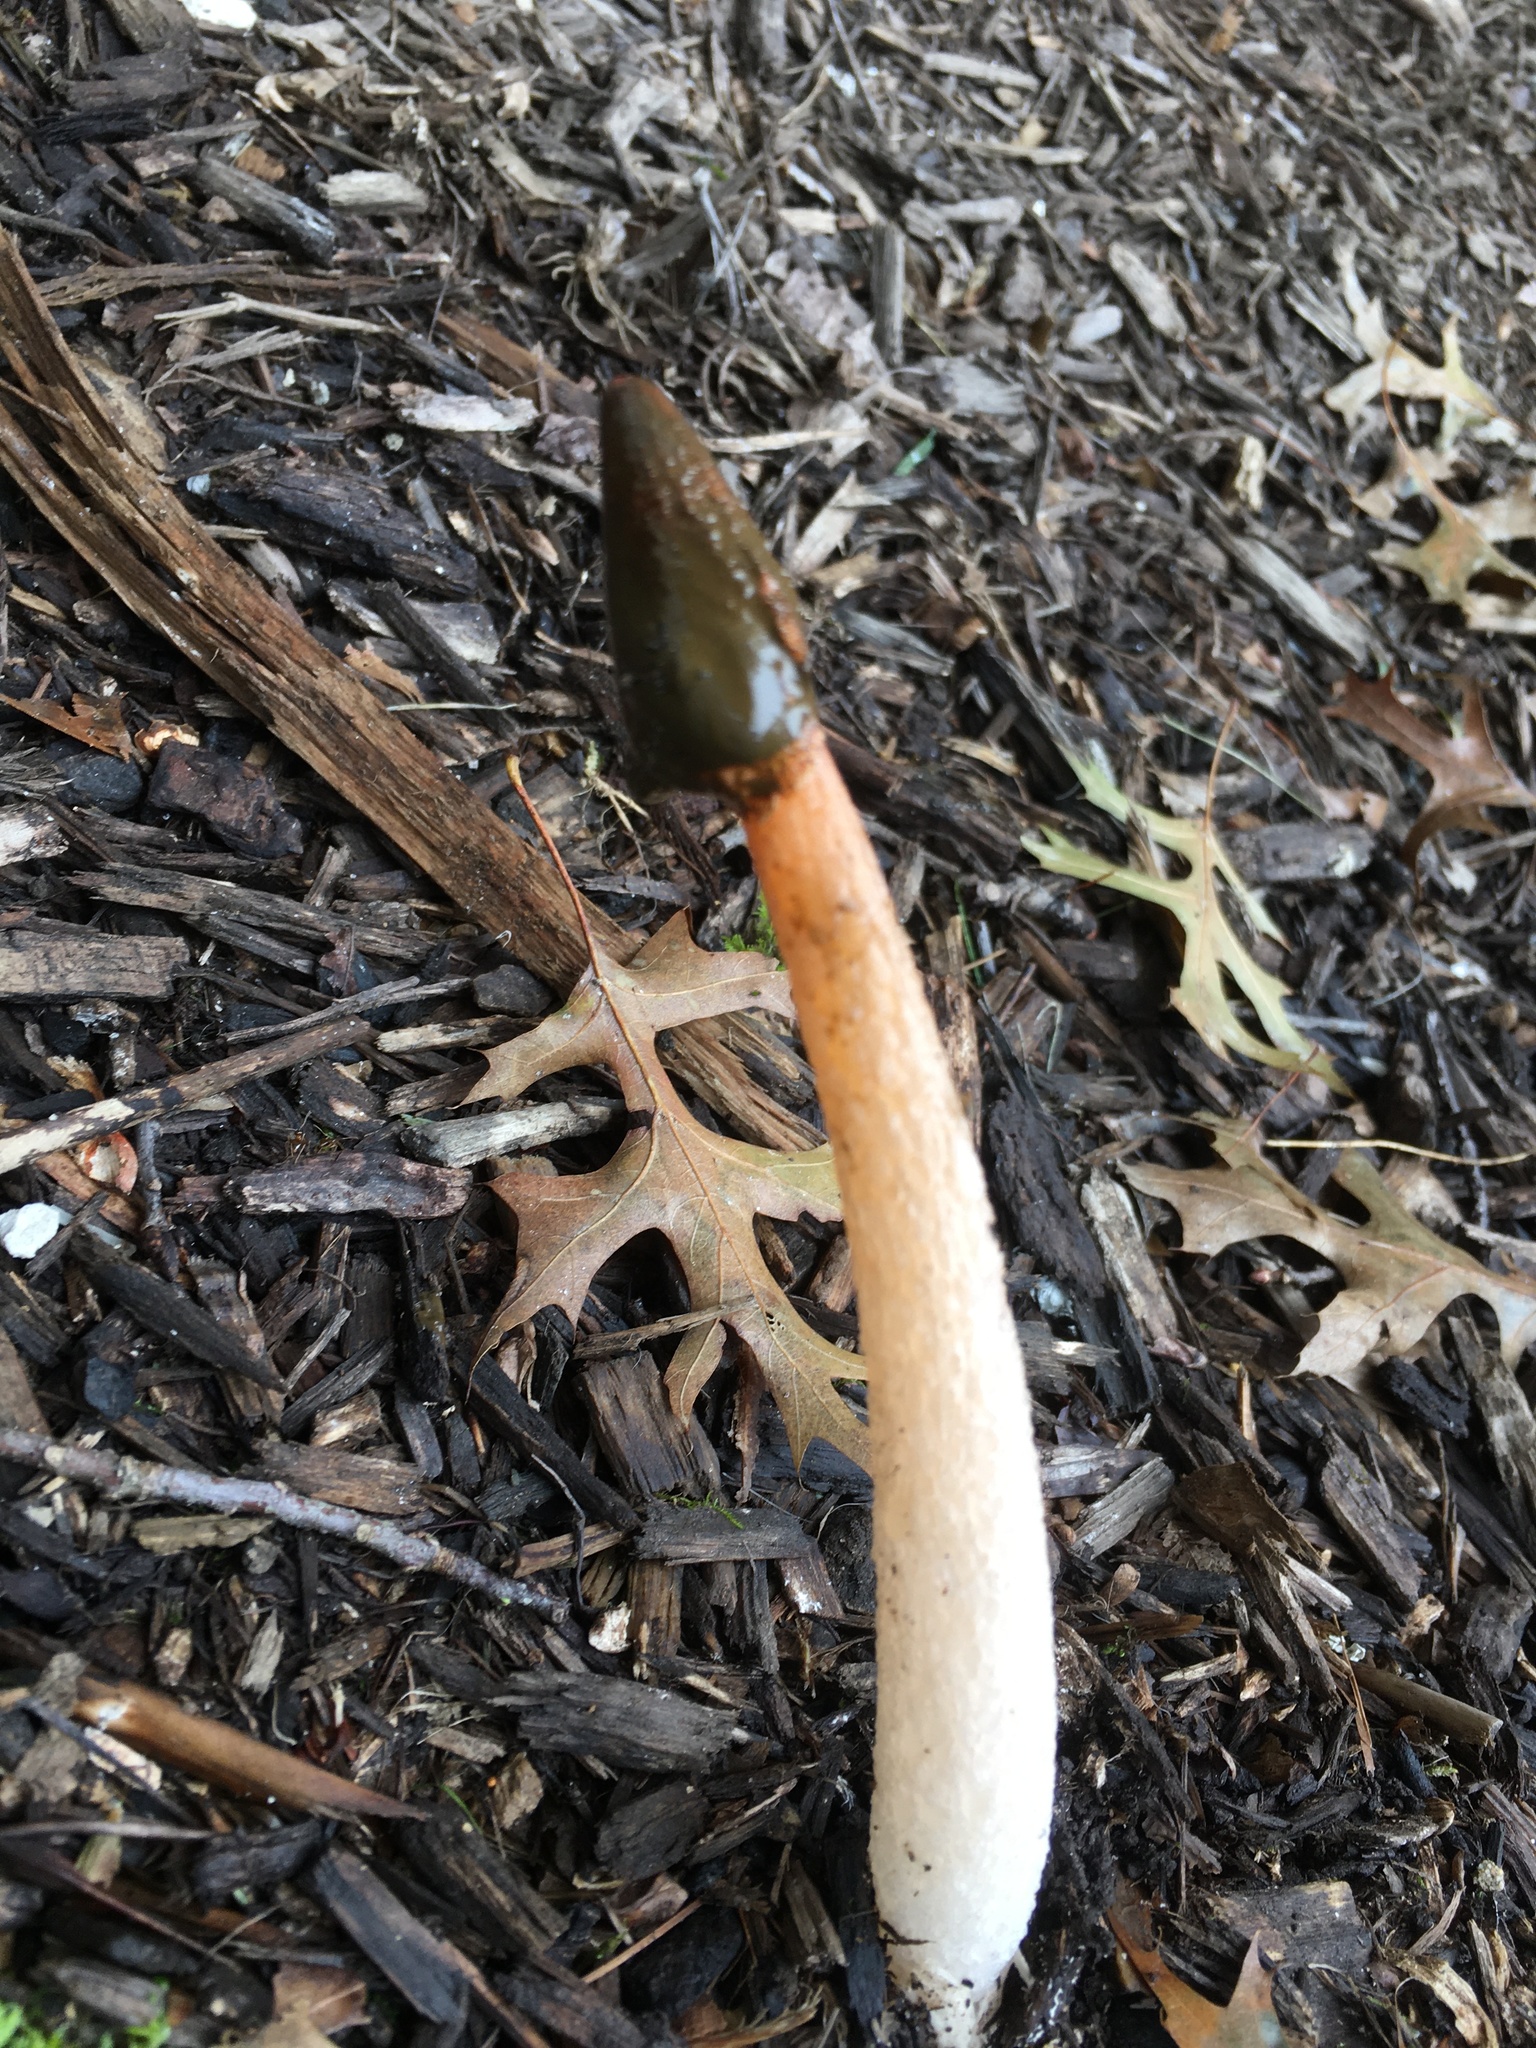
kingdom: Fungi
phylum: Basidiomycota
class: Agaricomycetes
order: Phallales
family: Phallaceae
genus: Phallus
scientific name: Phallus rugulosus
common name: Wrinkly stinkhorn
